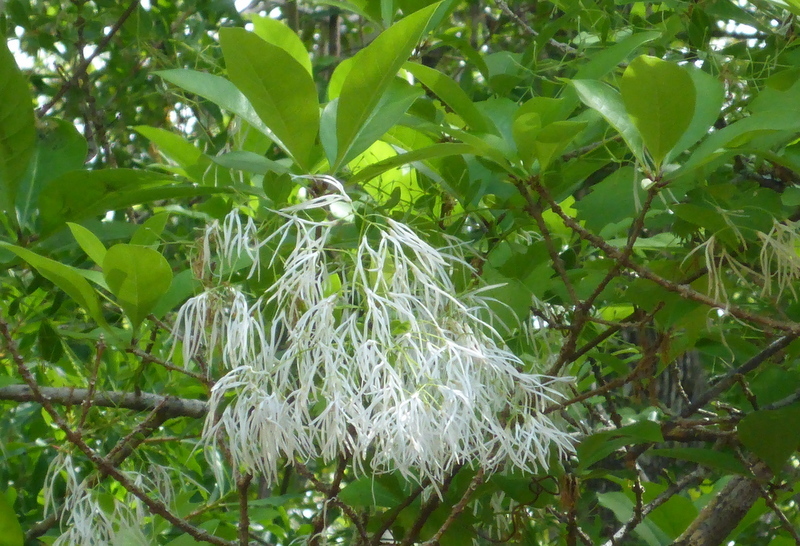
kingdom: Plantae
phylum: Tracheophyta
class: Magnoliopsida
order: Lamiales
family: Oleaceae
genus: Chionanthus
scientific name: Chionanthus virginicus
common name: American fringetree
